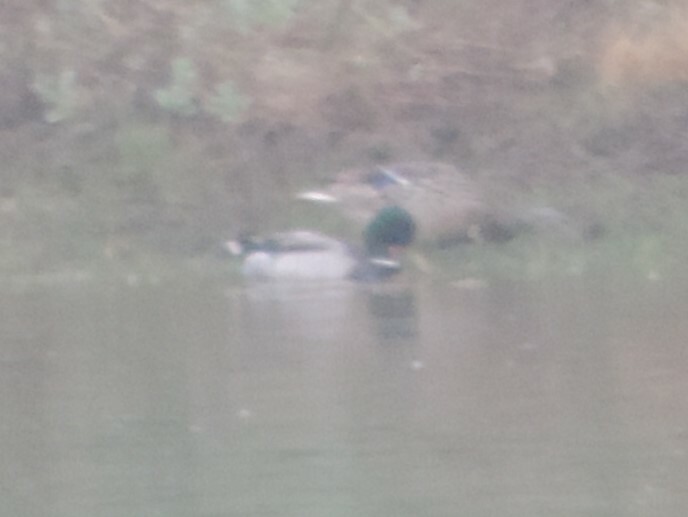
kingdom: Animalia
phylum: Chordata
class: Aves
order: Anseriformes
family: Anatidae
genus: Anas
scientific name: Anas platyrhynchos
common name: Mallard
